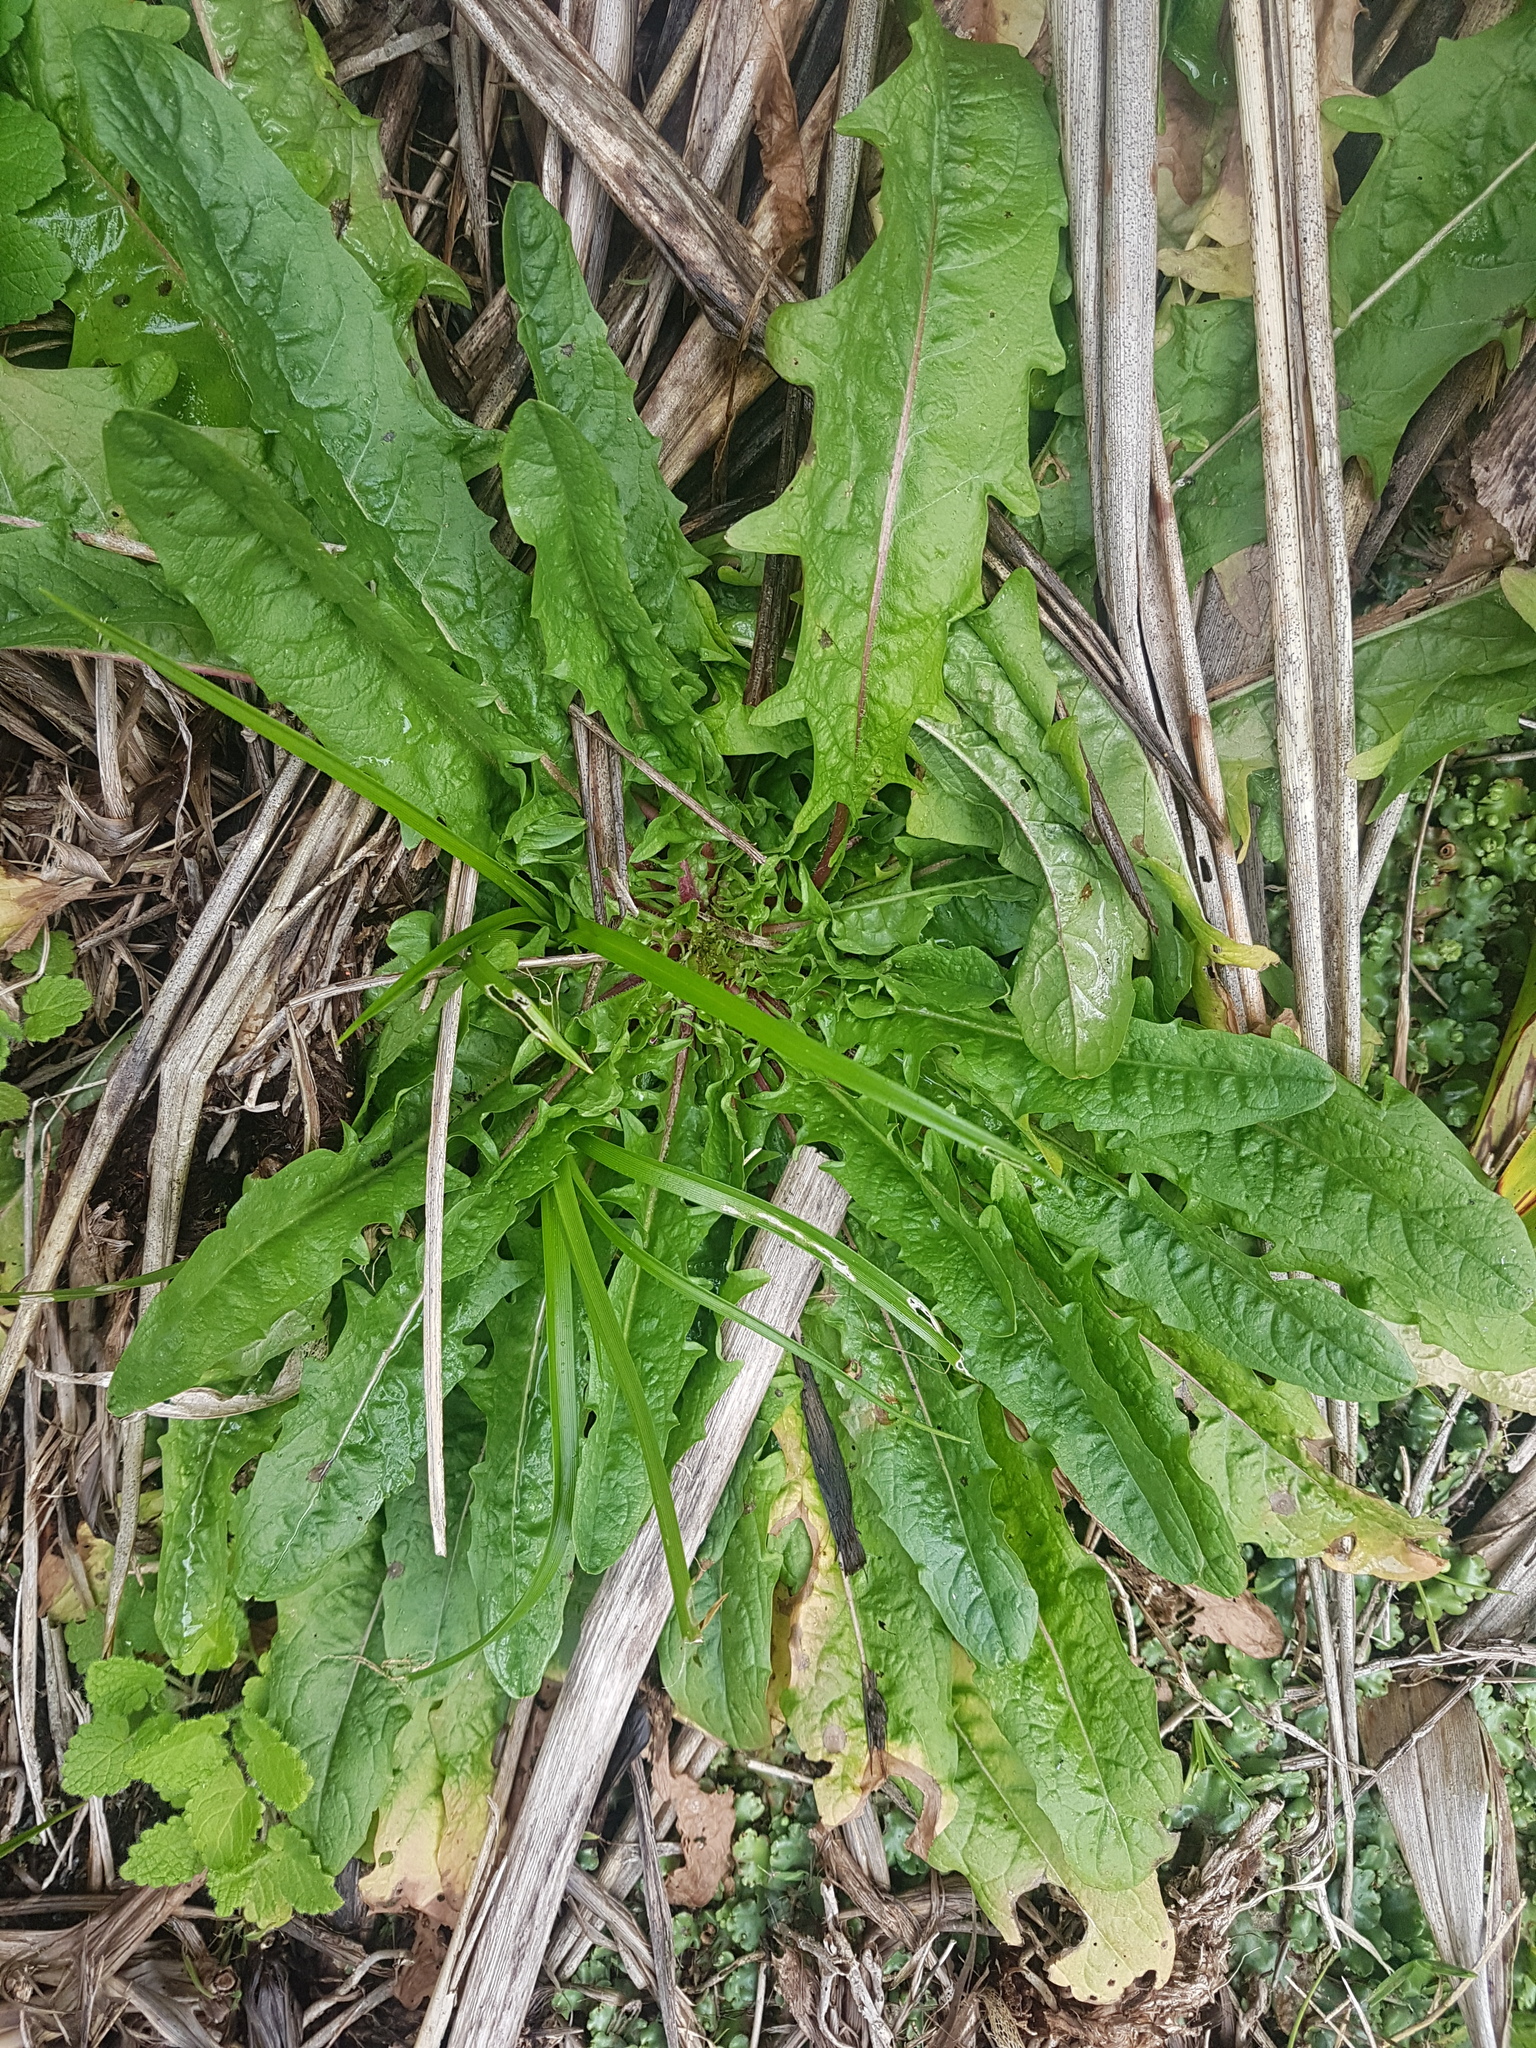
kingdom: Plantae
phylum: Tracheophyta
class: Magnoliopsida
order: Asterales
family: Asteraceae
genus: Crepis
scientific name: Crepis capillaris
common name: Smooth hawksbeard
